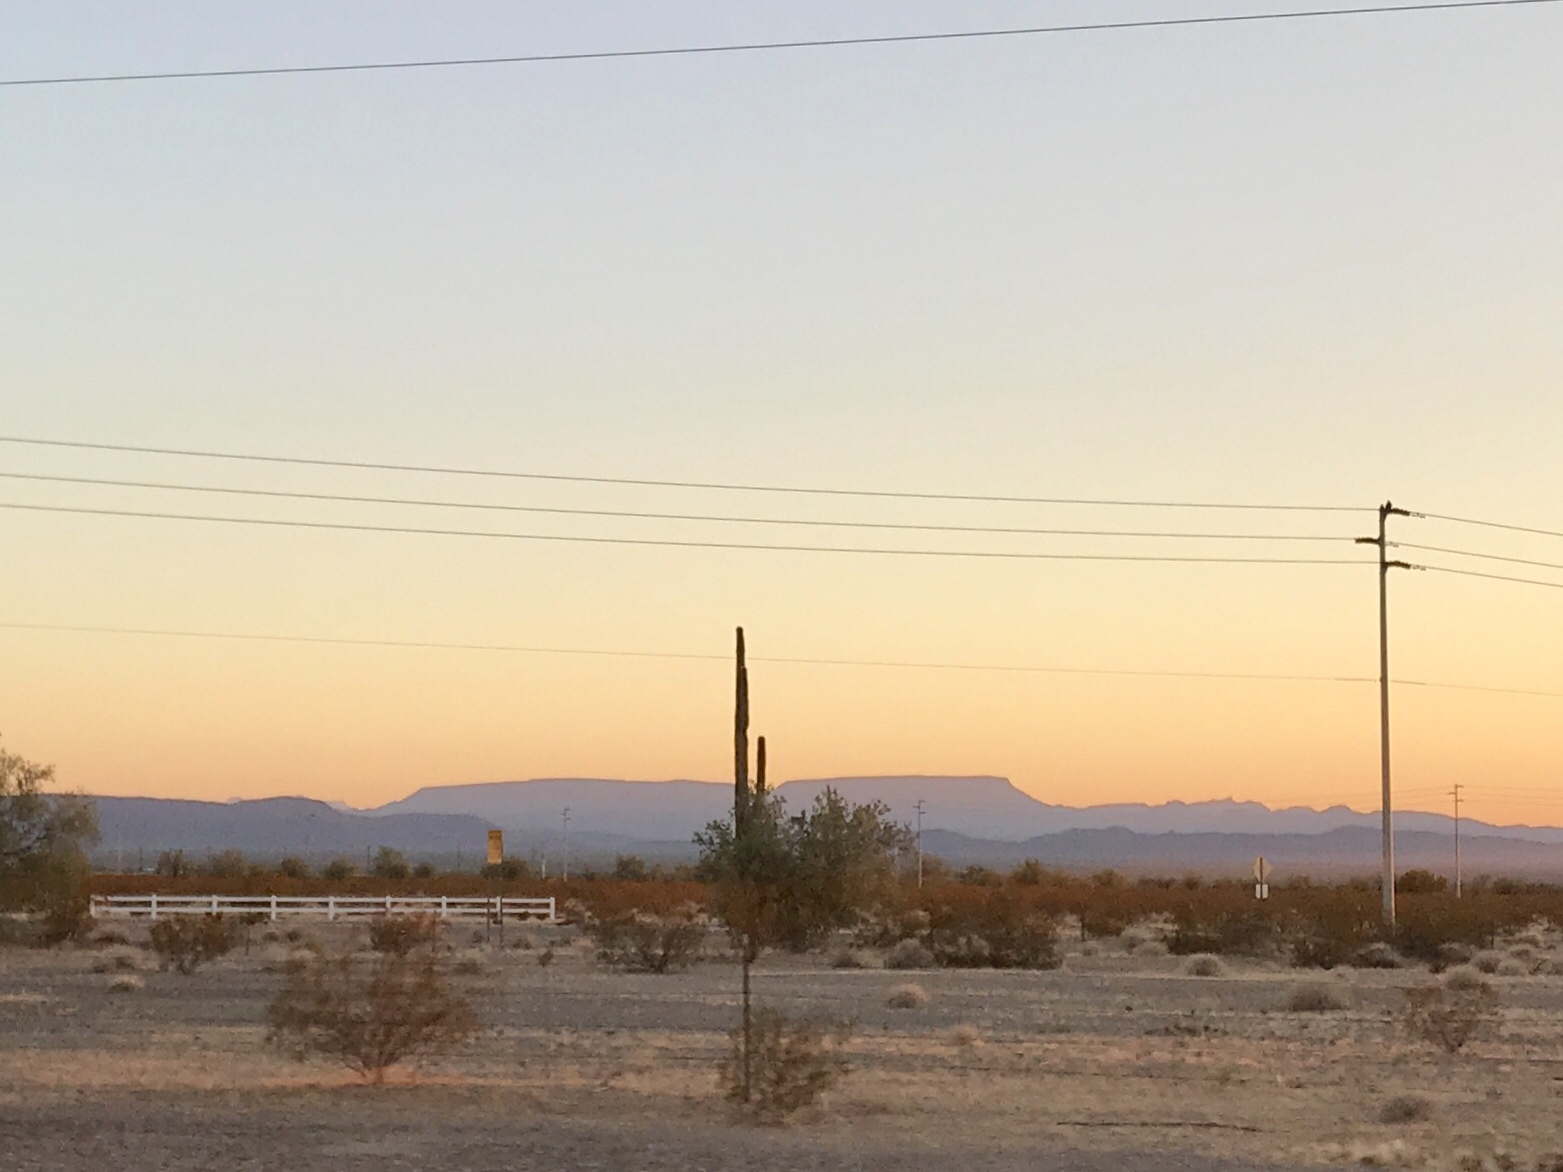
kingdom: Plantae
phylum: Tracheophyta
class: Magnoliopsida
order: Caryophyllales
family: Cactaceae
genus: Carnegiea
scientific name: Carnegiea gigantea
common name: Saguaro
